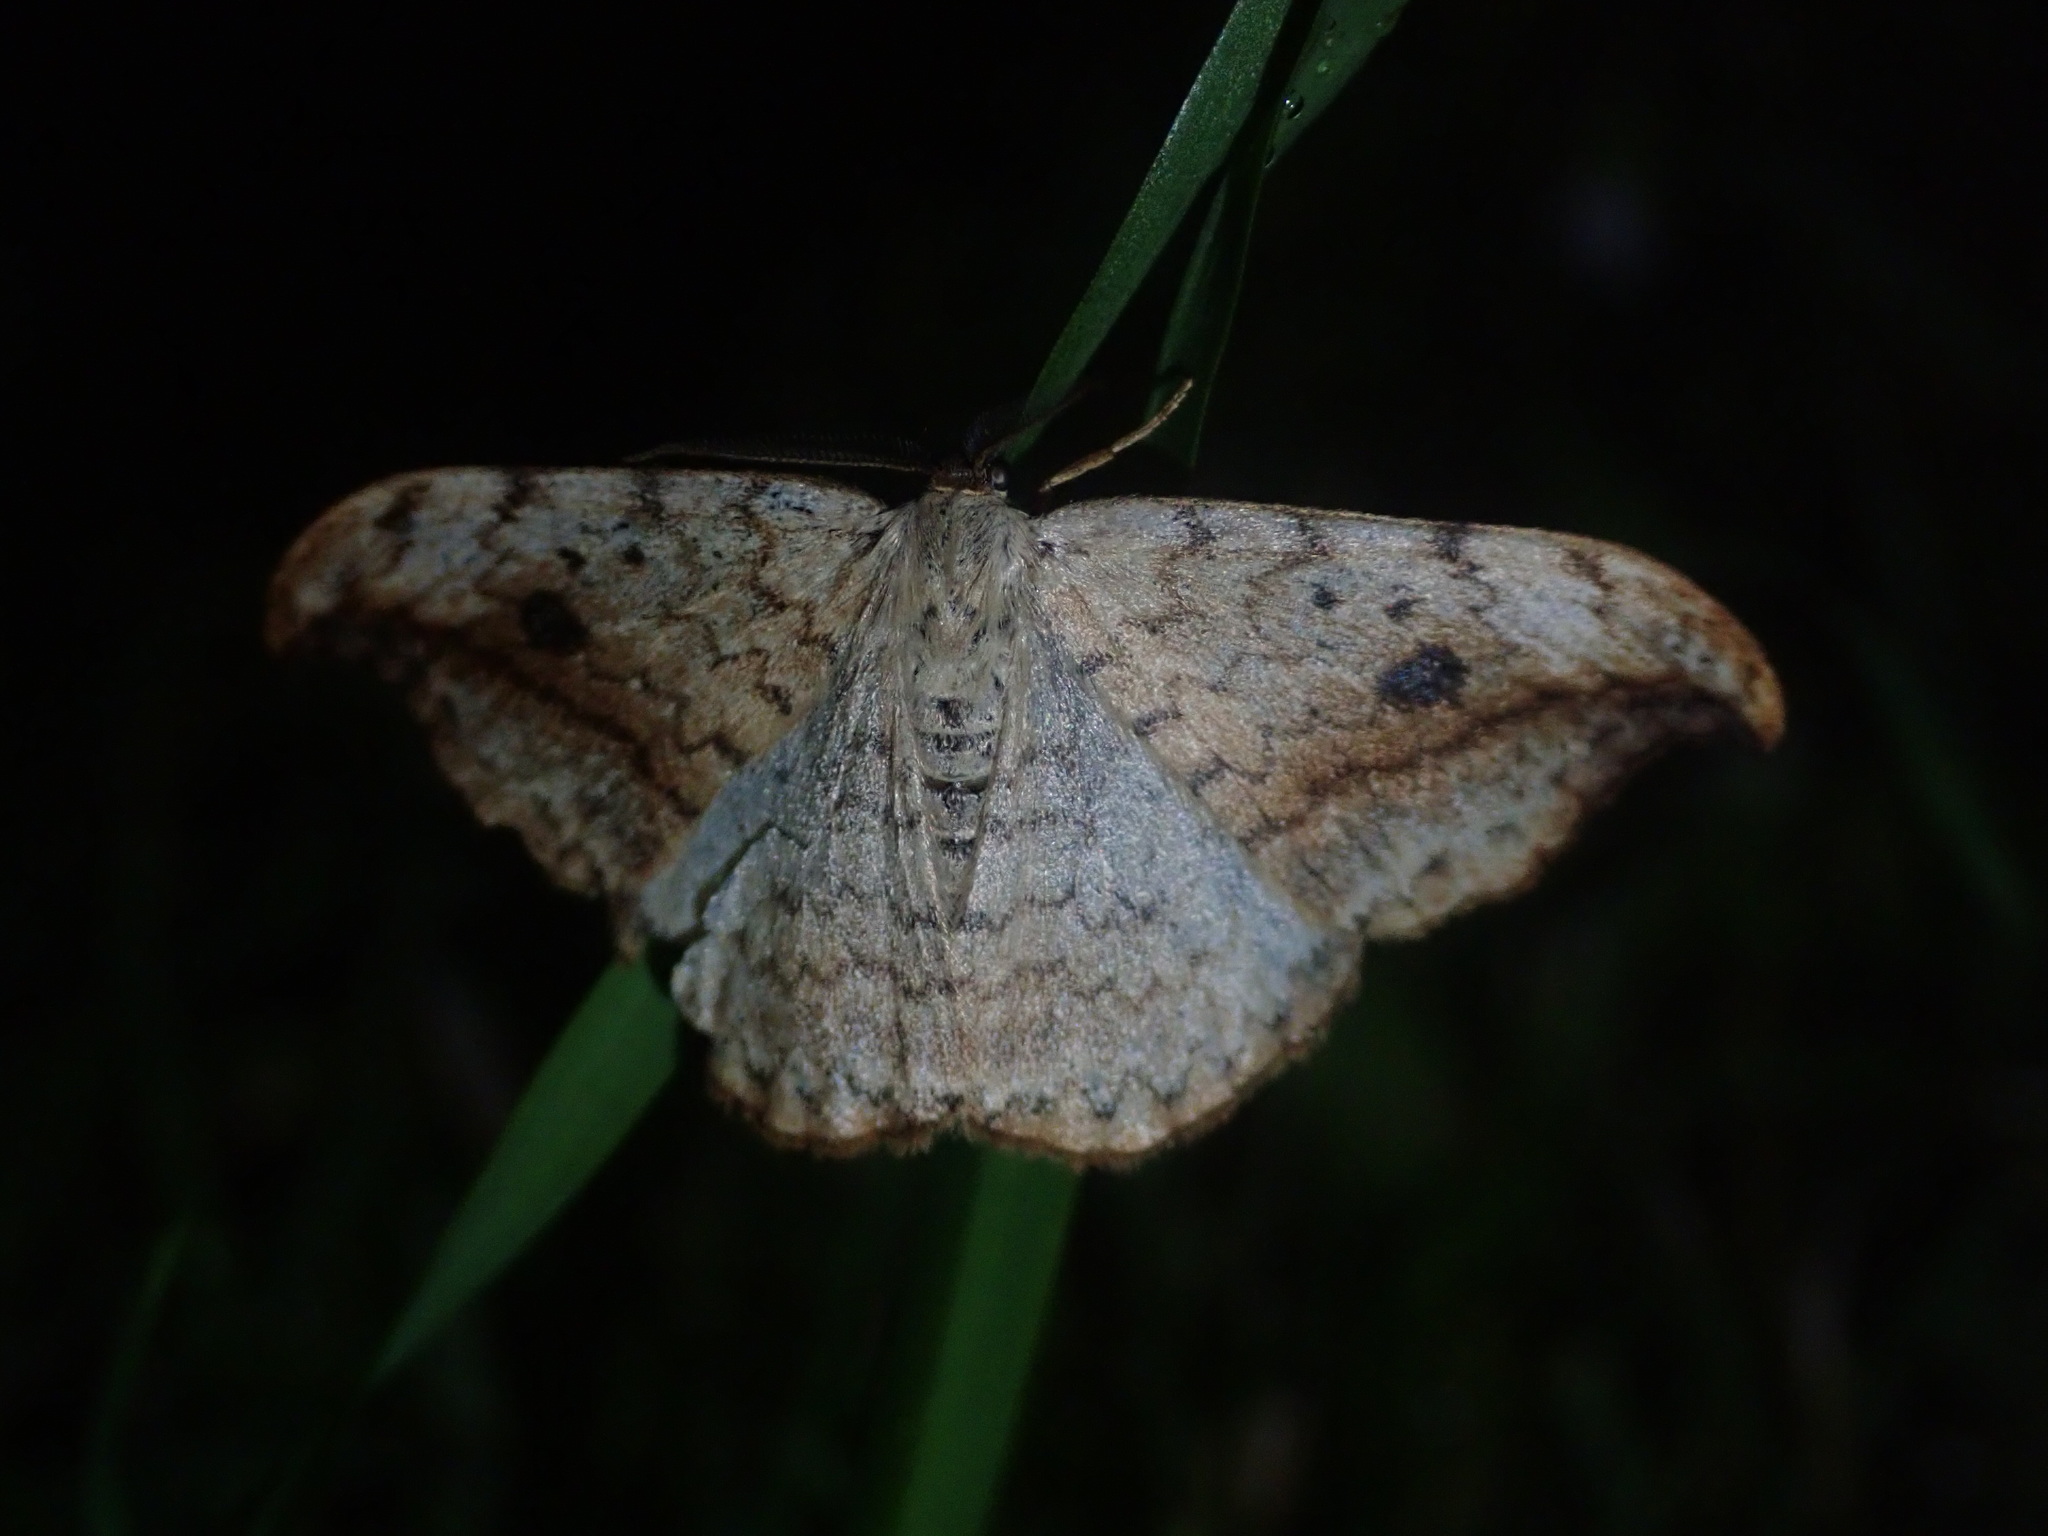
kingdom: Animalia
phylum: Arthropoda
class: Insecta
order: Lepidoptera
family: Drepanidae
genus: Drepana
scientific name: Drepana falcataria
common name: Pebble hook-tip
